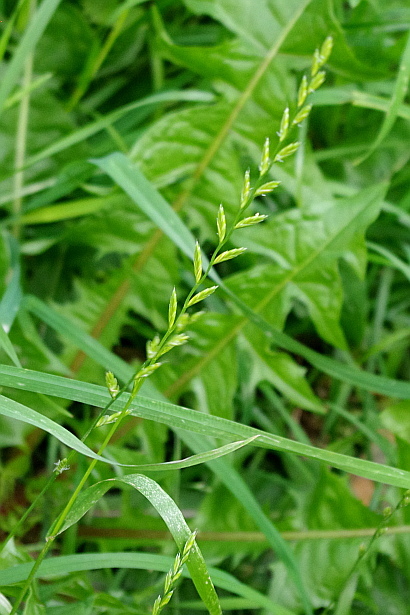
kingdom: Plantae
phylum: Tracheophyta
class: Liliopsida
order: Poales
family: Poaceae
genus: Lolium
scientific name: Lolium perenne
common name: Perennial ryegrass
